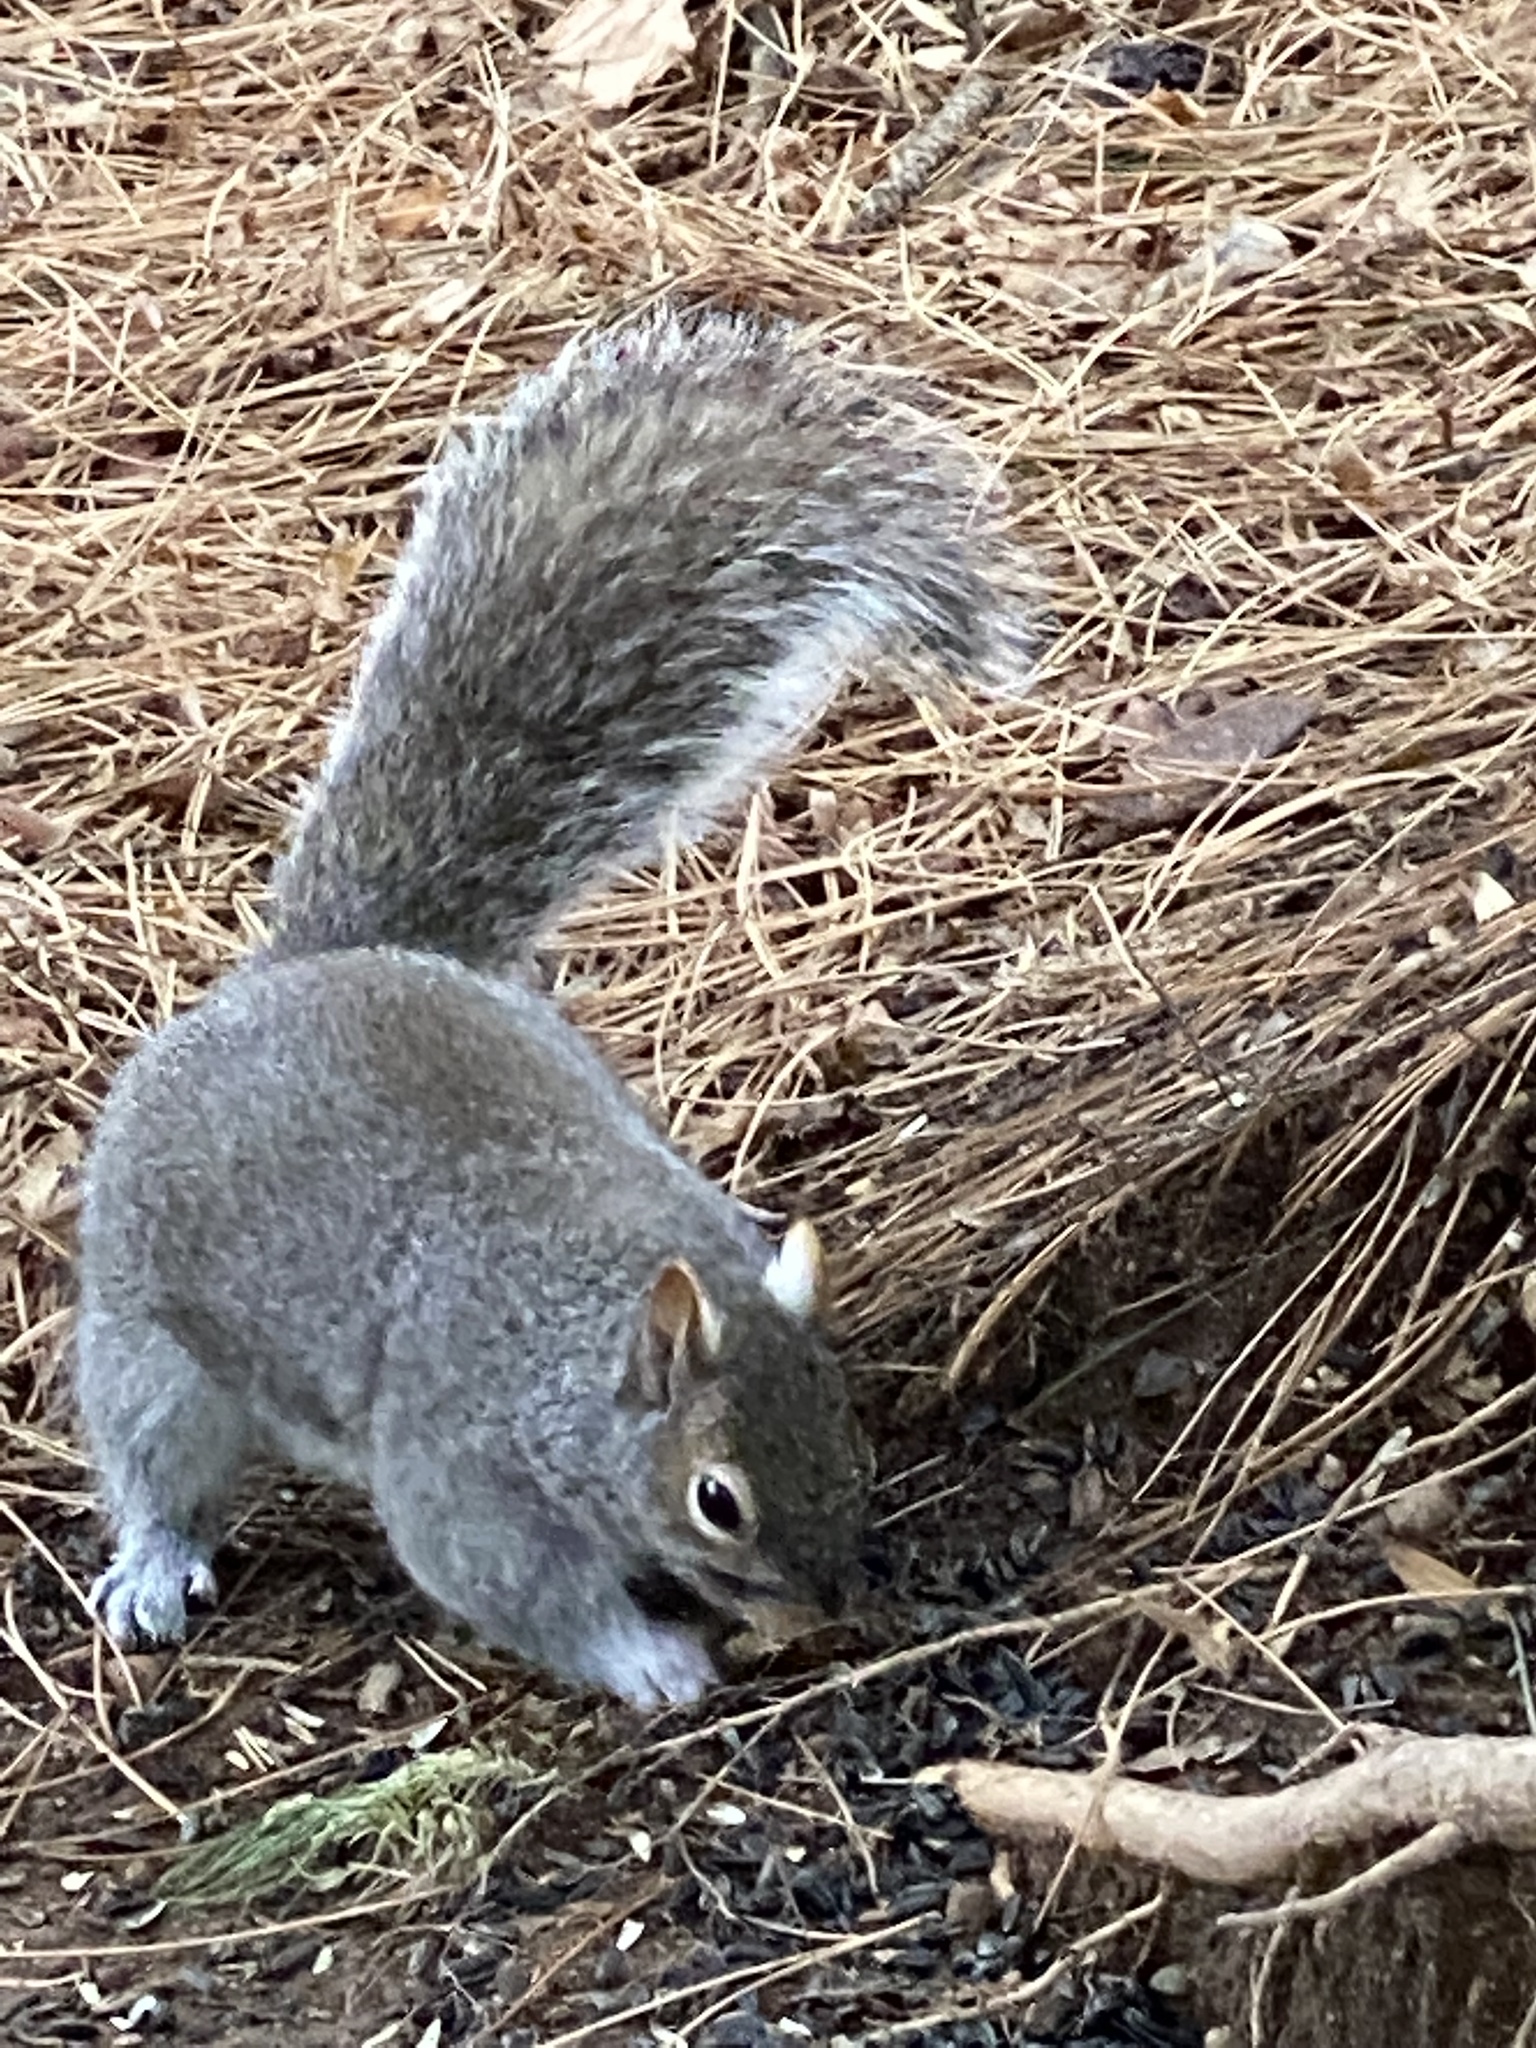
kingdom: Animalia
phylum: Chordata
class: Mammalia
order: Rodentia
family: Sciuridae
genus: Sciurus
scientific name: Sciurus carolinensis
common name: Eastern gray squirrel
